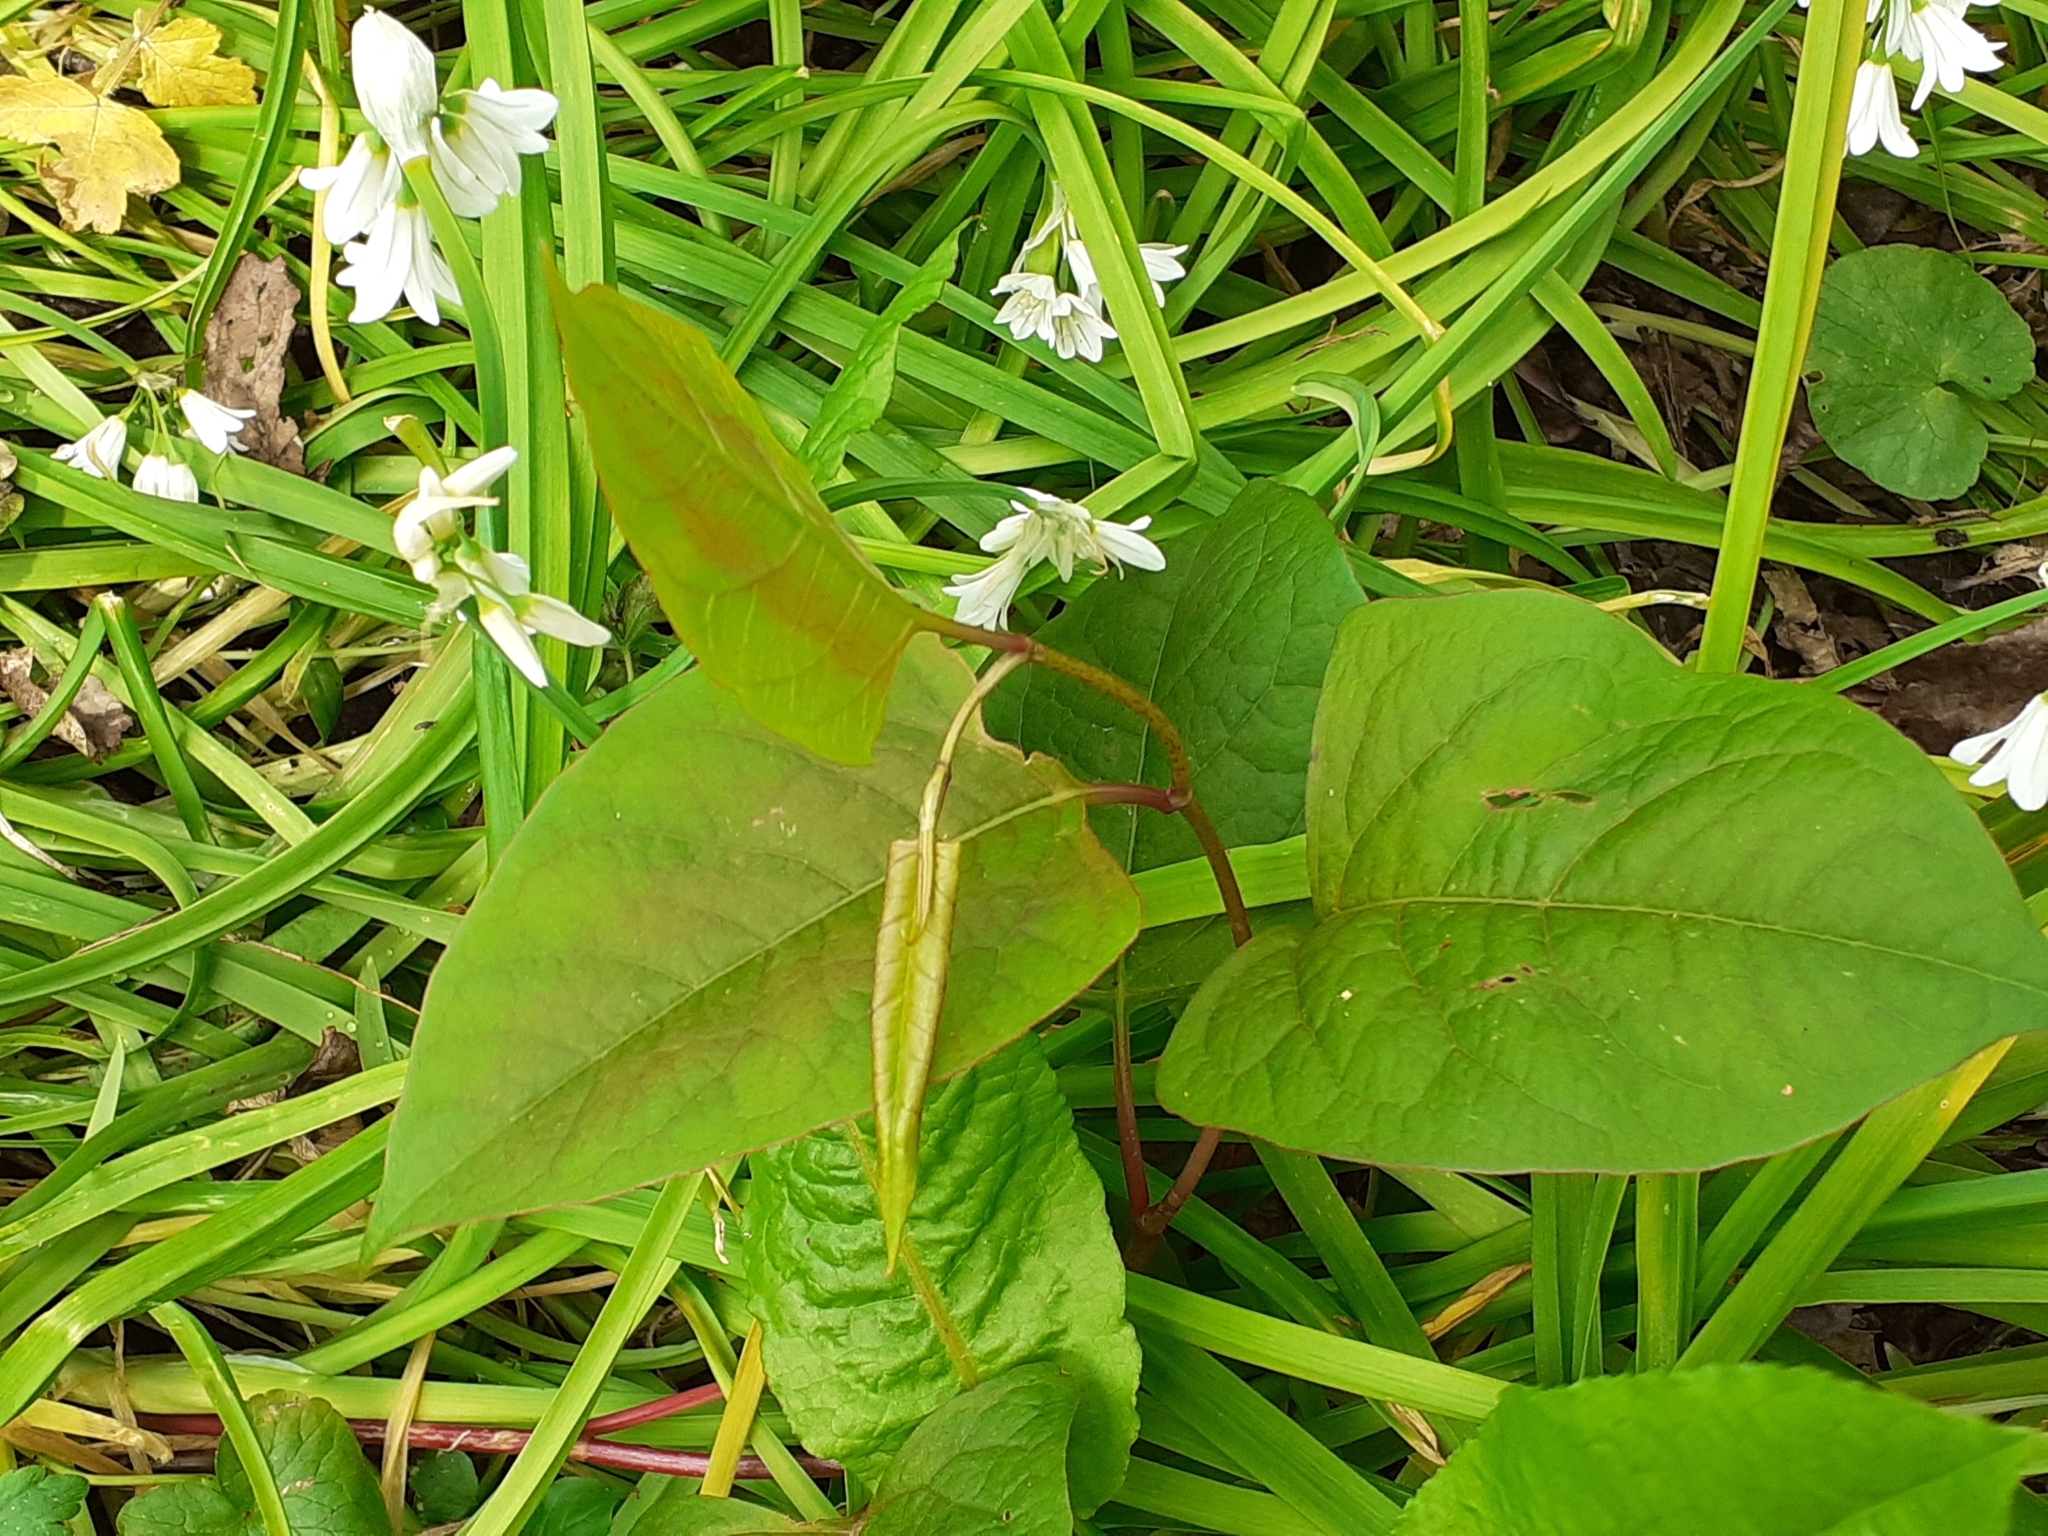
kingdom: Plantae
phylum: Tracheophyta
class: Magnoliopsida
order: Caryophyllales
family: Polygonaceae
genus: Reynoutria
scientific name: Reynoutria japonica
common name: Japanese knotweed
